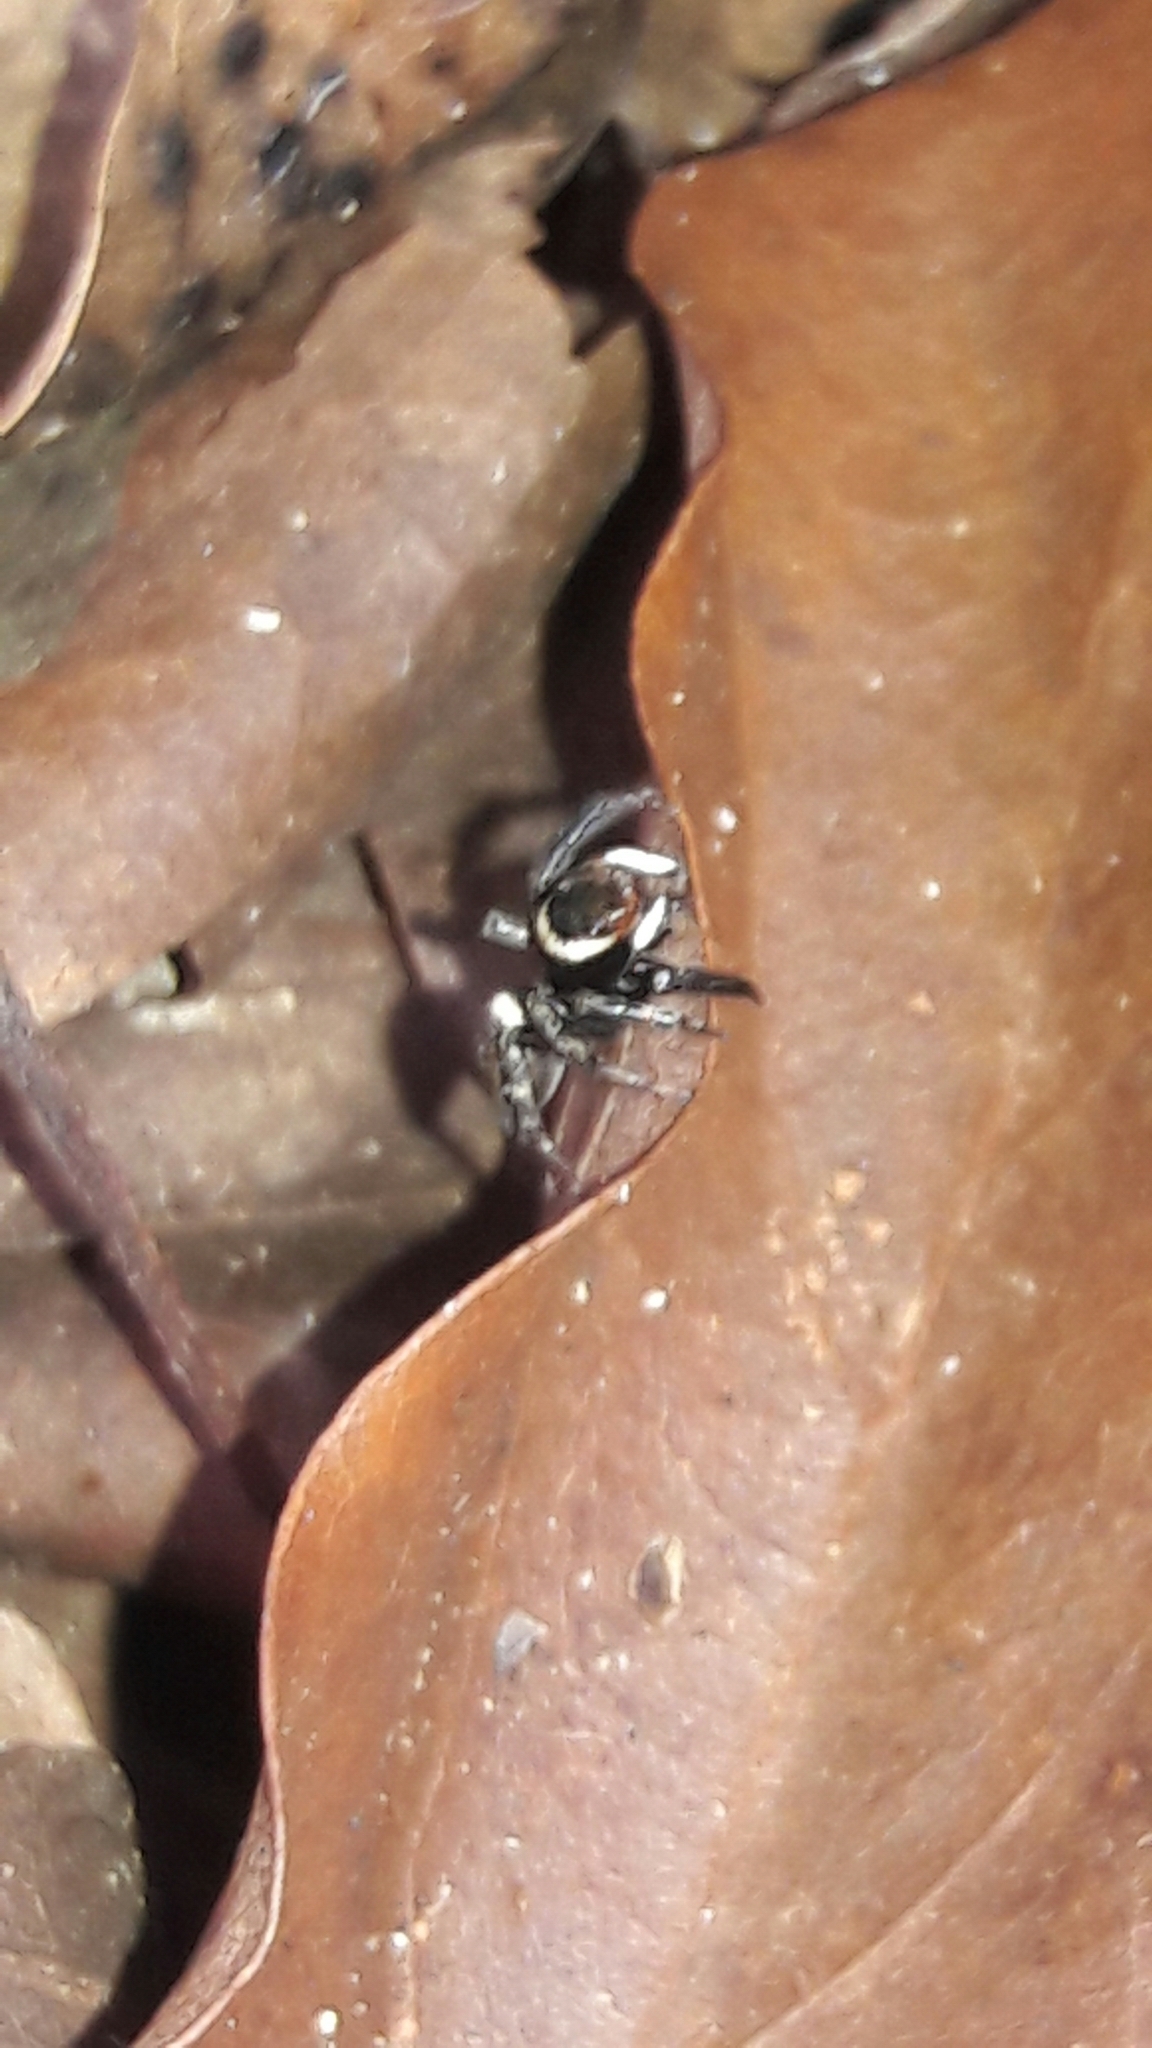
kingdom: Animalia
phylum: Arthropoda
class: Arachnida
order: Araneae
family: Salticidae
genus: Hasarius
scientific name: Hasarius adansoni
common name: Jumping spider
